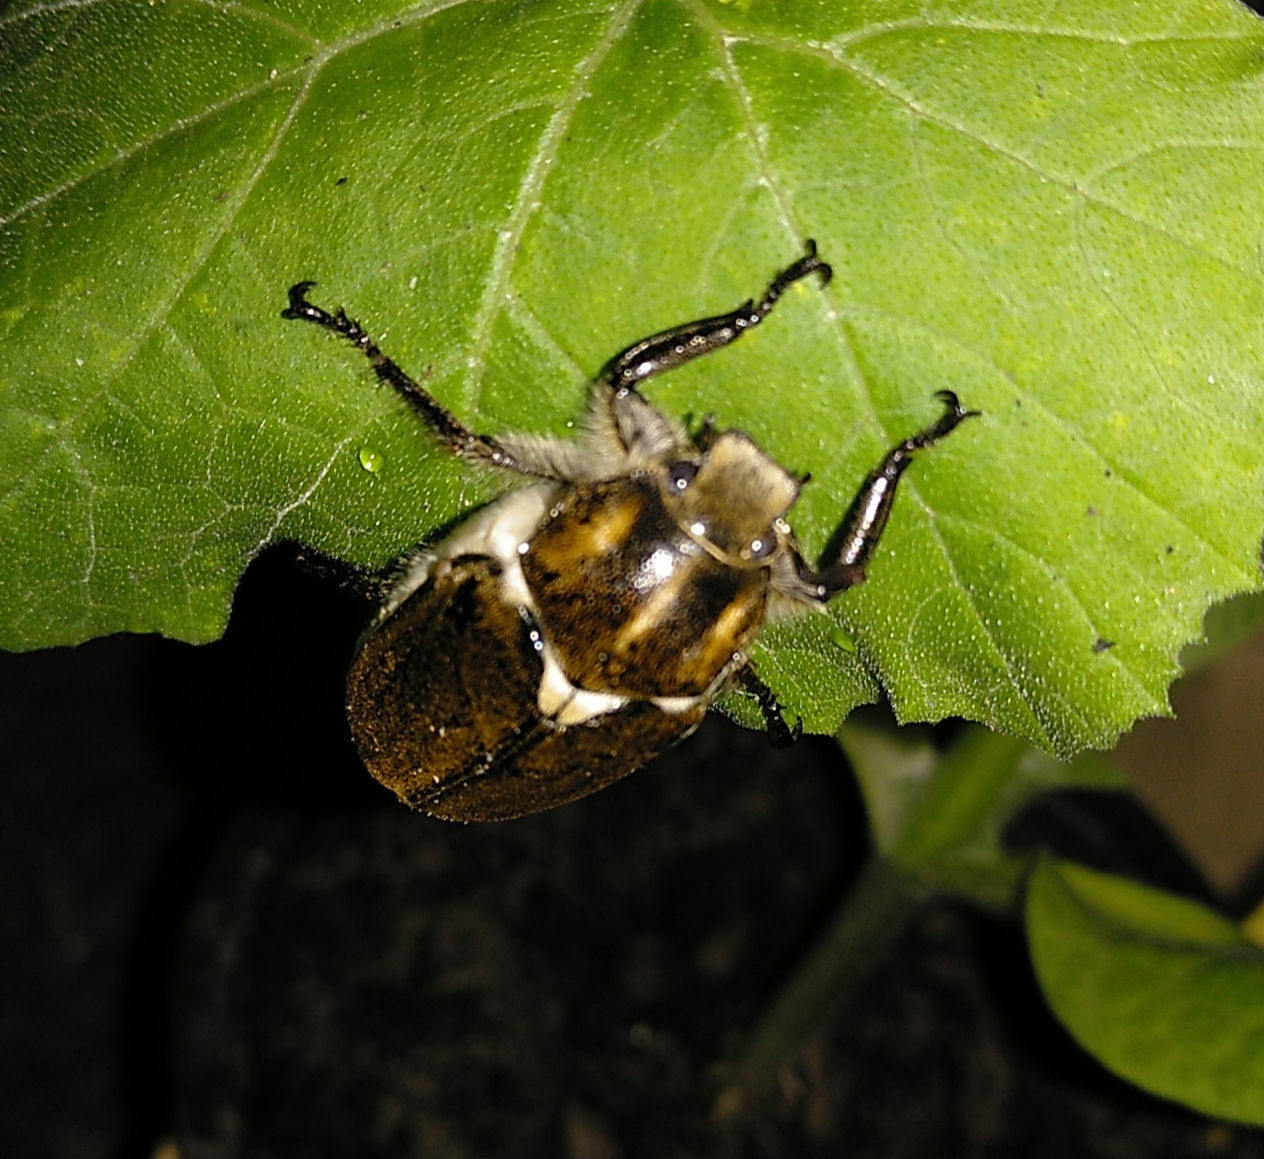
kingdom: Animalia
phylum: Arthropoda
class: Insecta
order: Coleoptera
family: Scarabaeidae
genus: Anoxia
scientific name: Anoxia villosa
